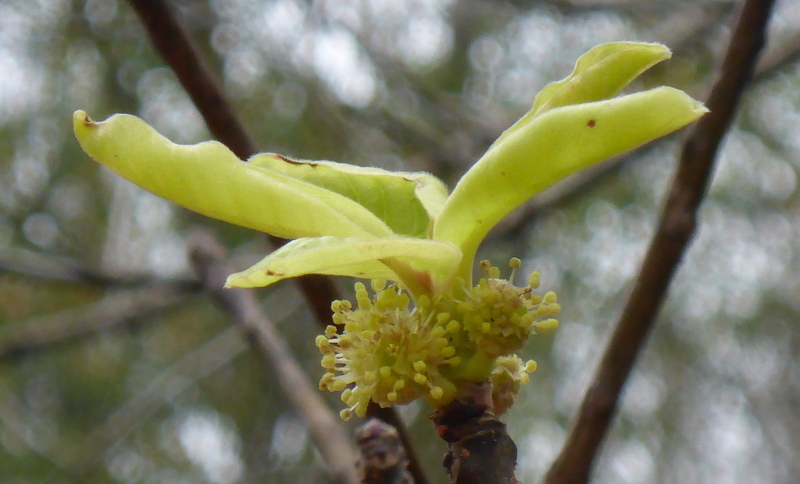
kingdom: Plantae
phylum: Tracheophyta
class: Magnoliopsida
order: Cornales
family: Nyssaceae
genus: Nyssa
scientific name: Nyssa ogeche
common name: Ogeechee tupelo
